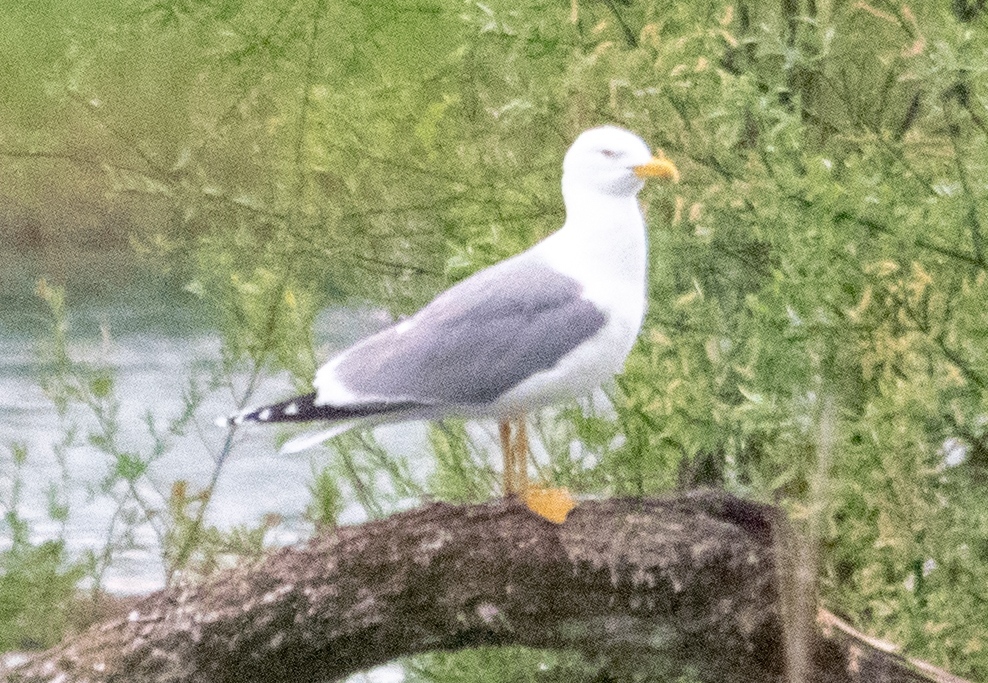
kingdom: Animalia
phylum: Chordata
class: Aves
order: Charadriiformes
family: Laridae
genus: Larus
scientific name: Larus michahellis
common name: Yellow-legged gull
